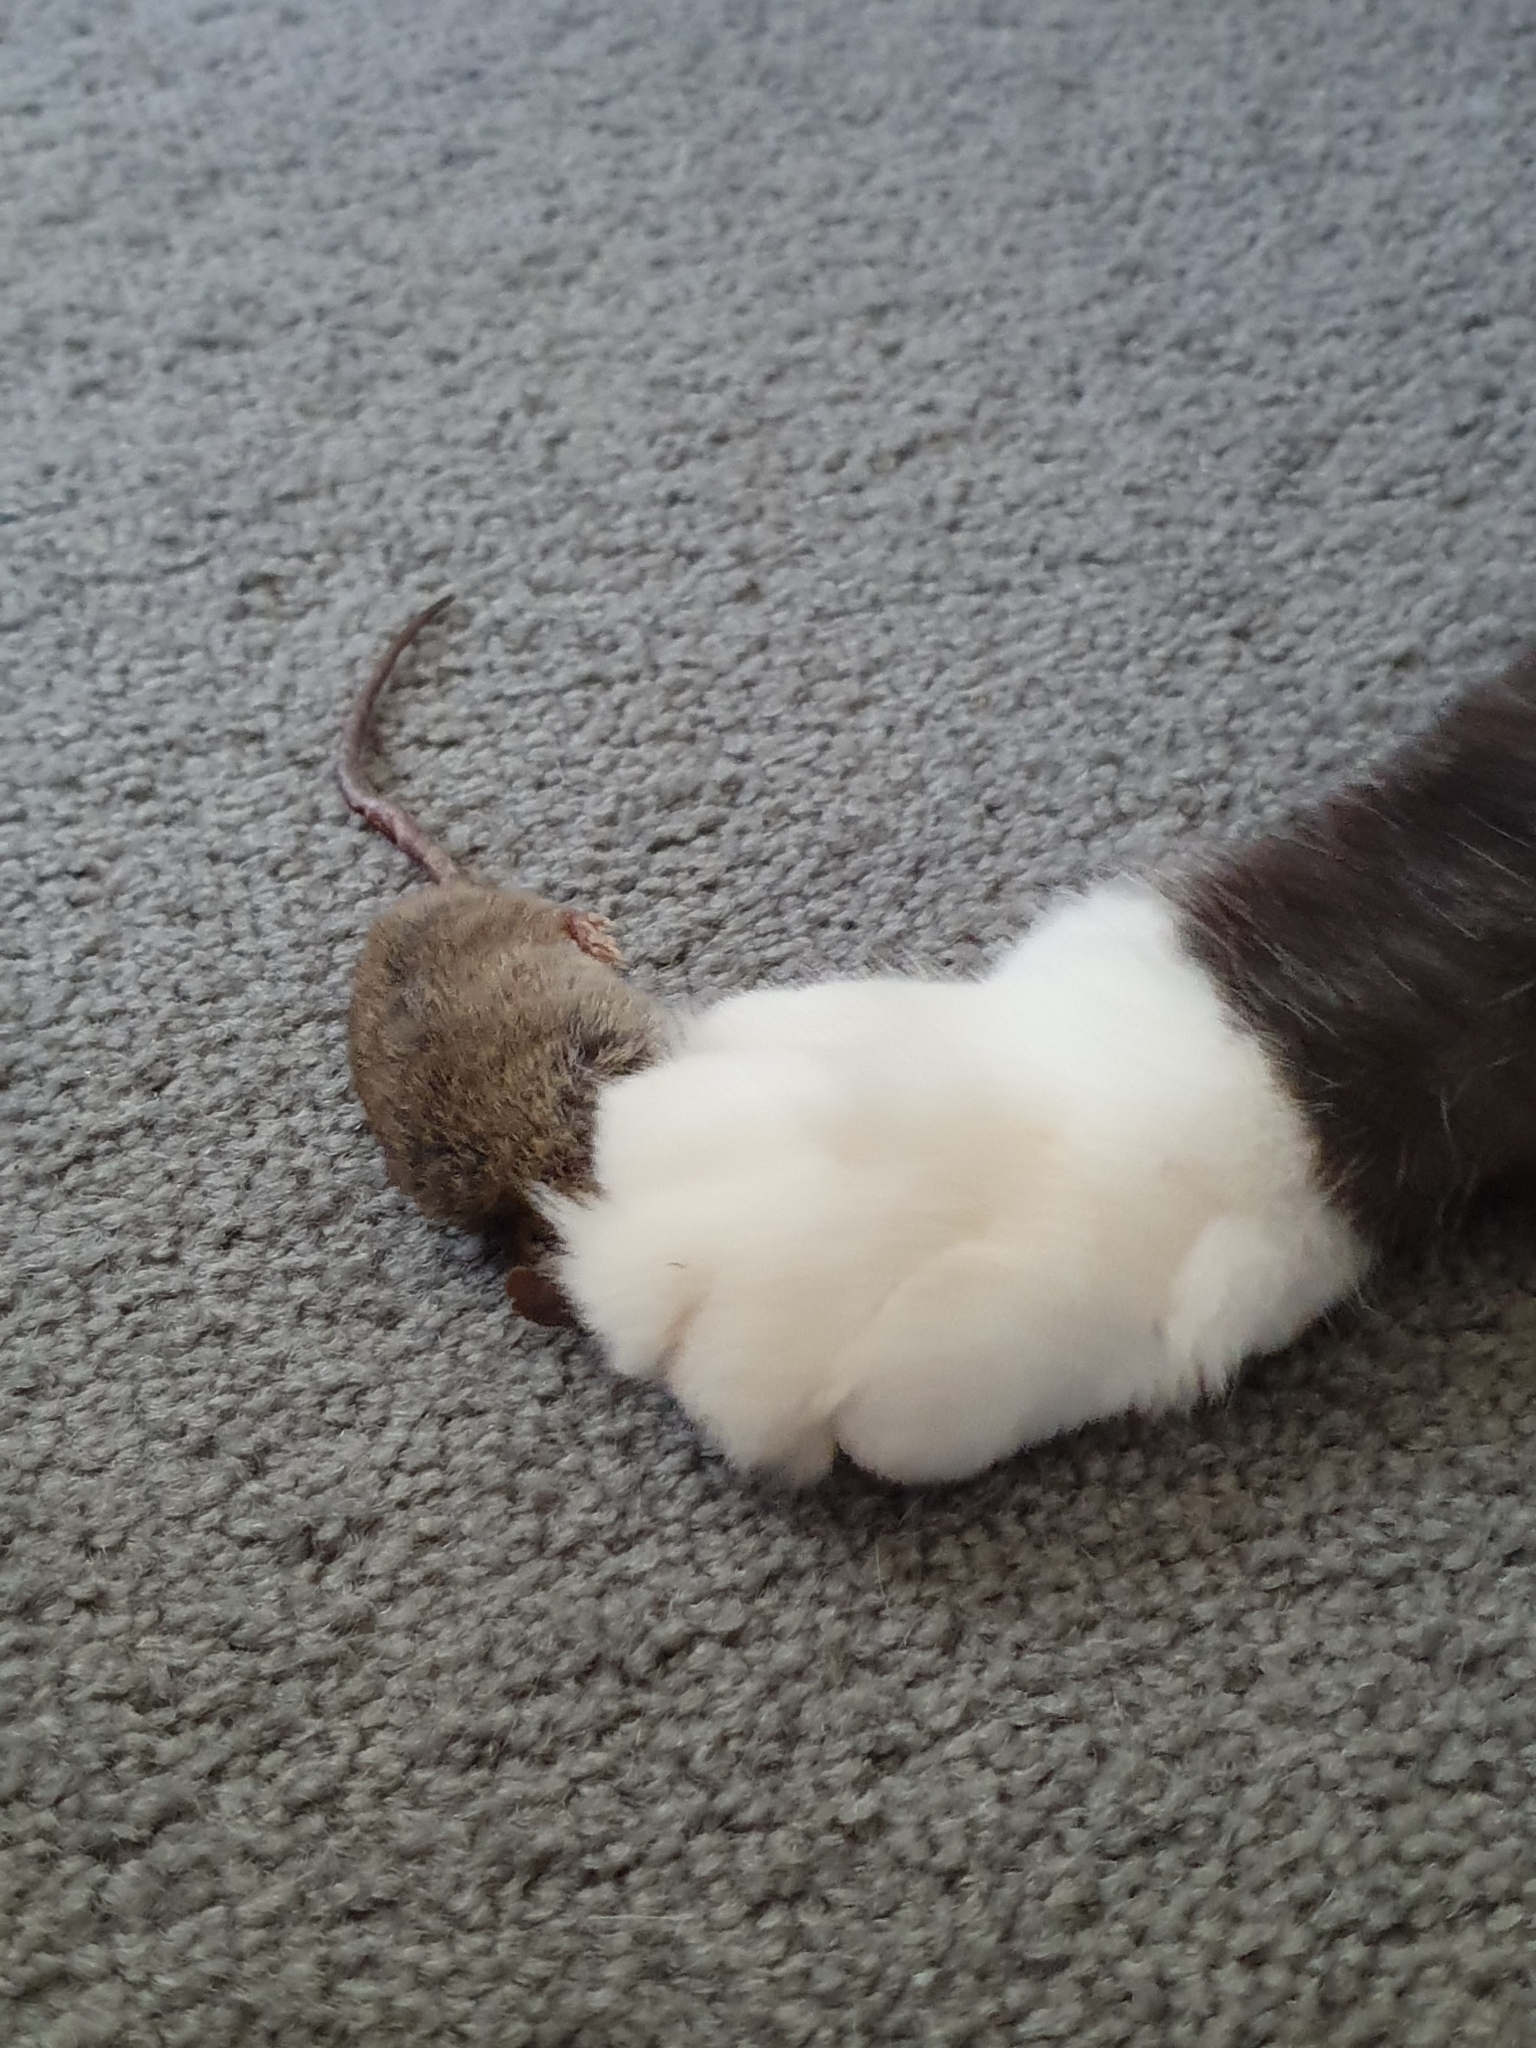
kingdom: Animalia
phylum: Chordata
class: Mammalia
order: Rodentia
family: Muridae
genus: Mus
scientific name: Mus musculus
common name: House mouse
